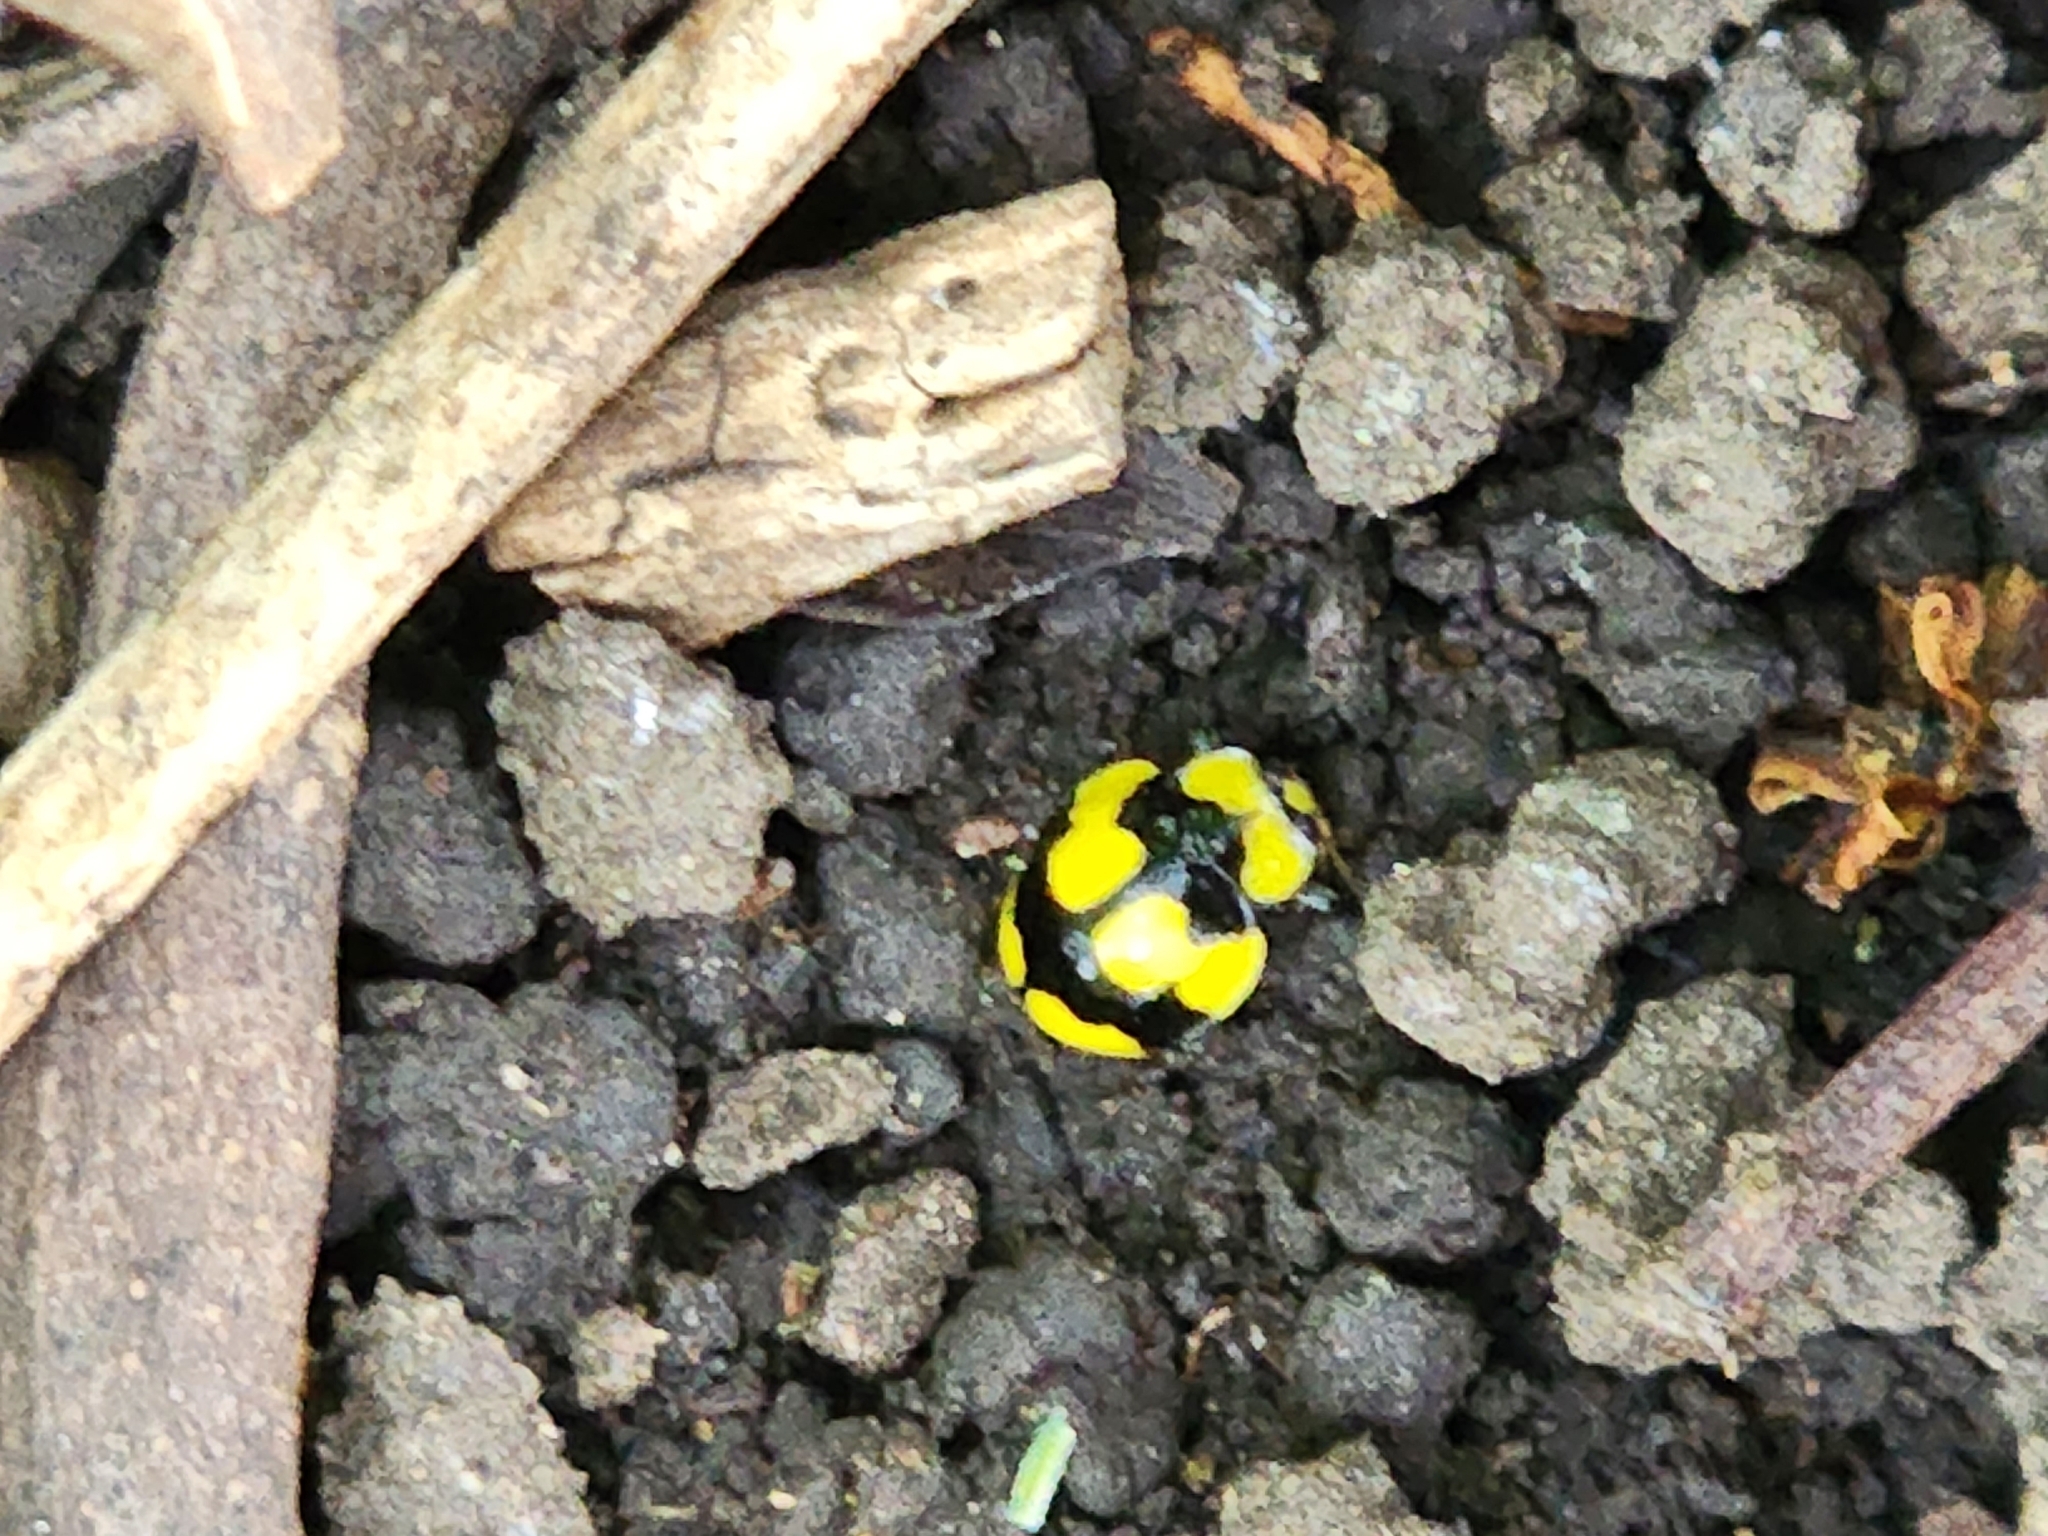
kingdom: Animalia
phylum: Arthropoda
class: Insecta
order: Coleoptera
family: Coccinellidae
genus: Illeis
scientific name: Illeis galbula
